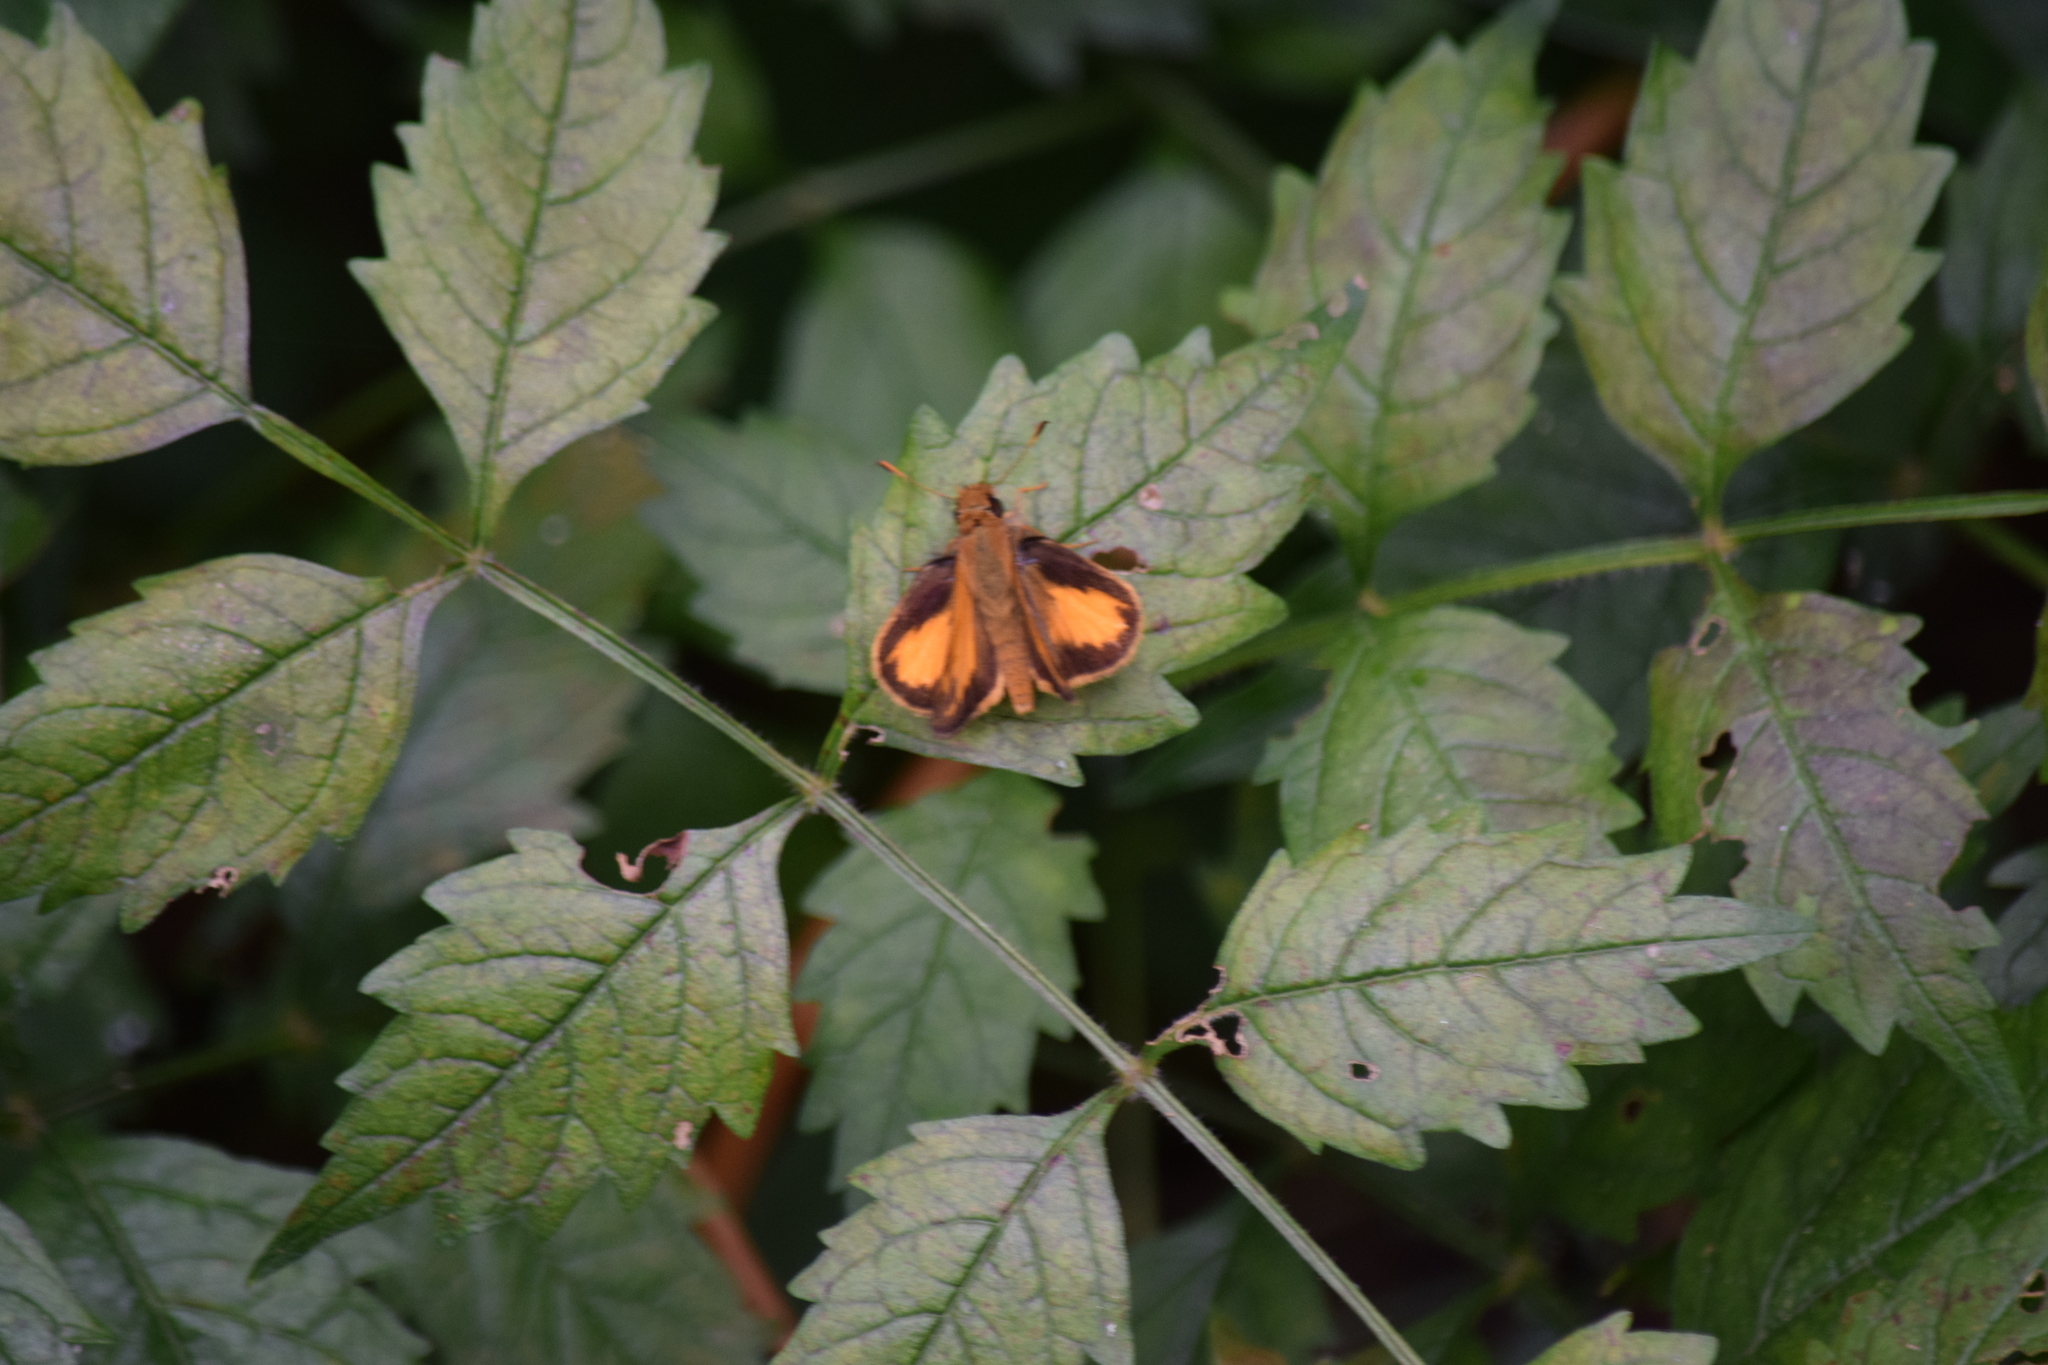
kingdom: Animalia
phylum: Arthropoda
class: Insecta
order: Lepidoptera
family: Hesperiidae
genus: Lon
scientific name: Lon zabulon
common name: Zabulon skipper
